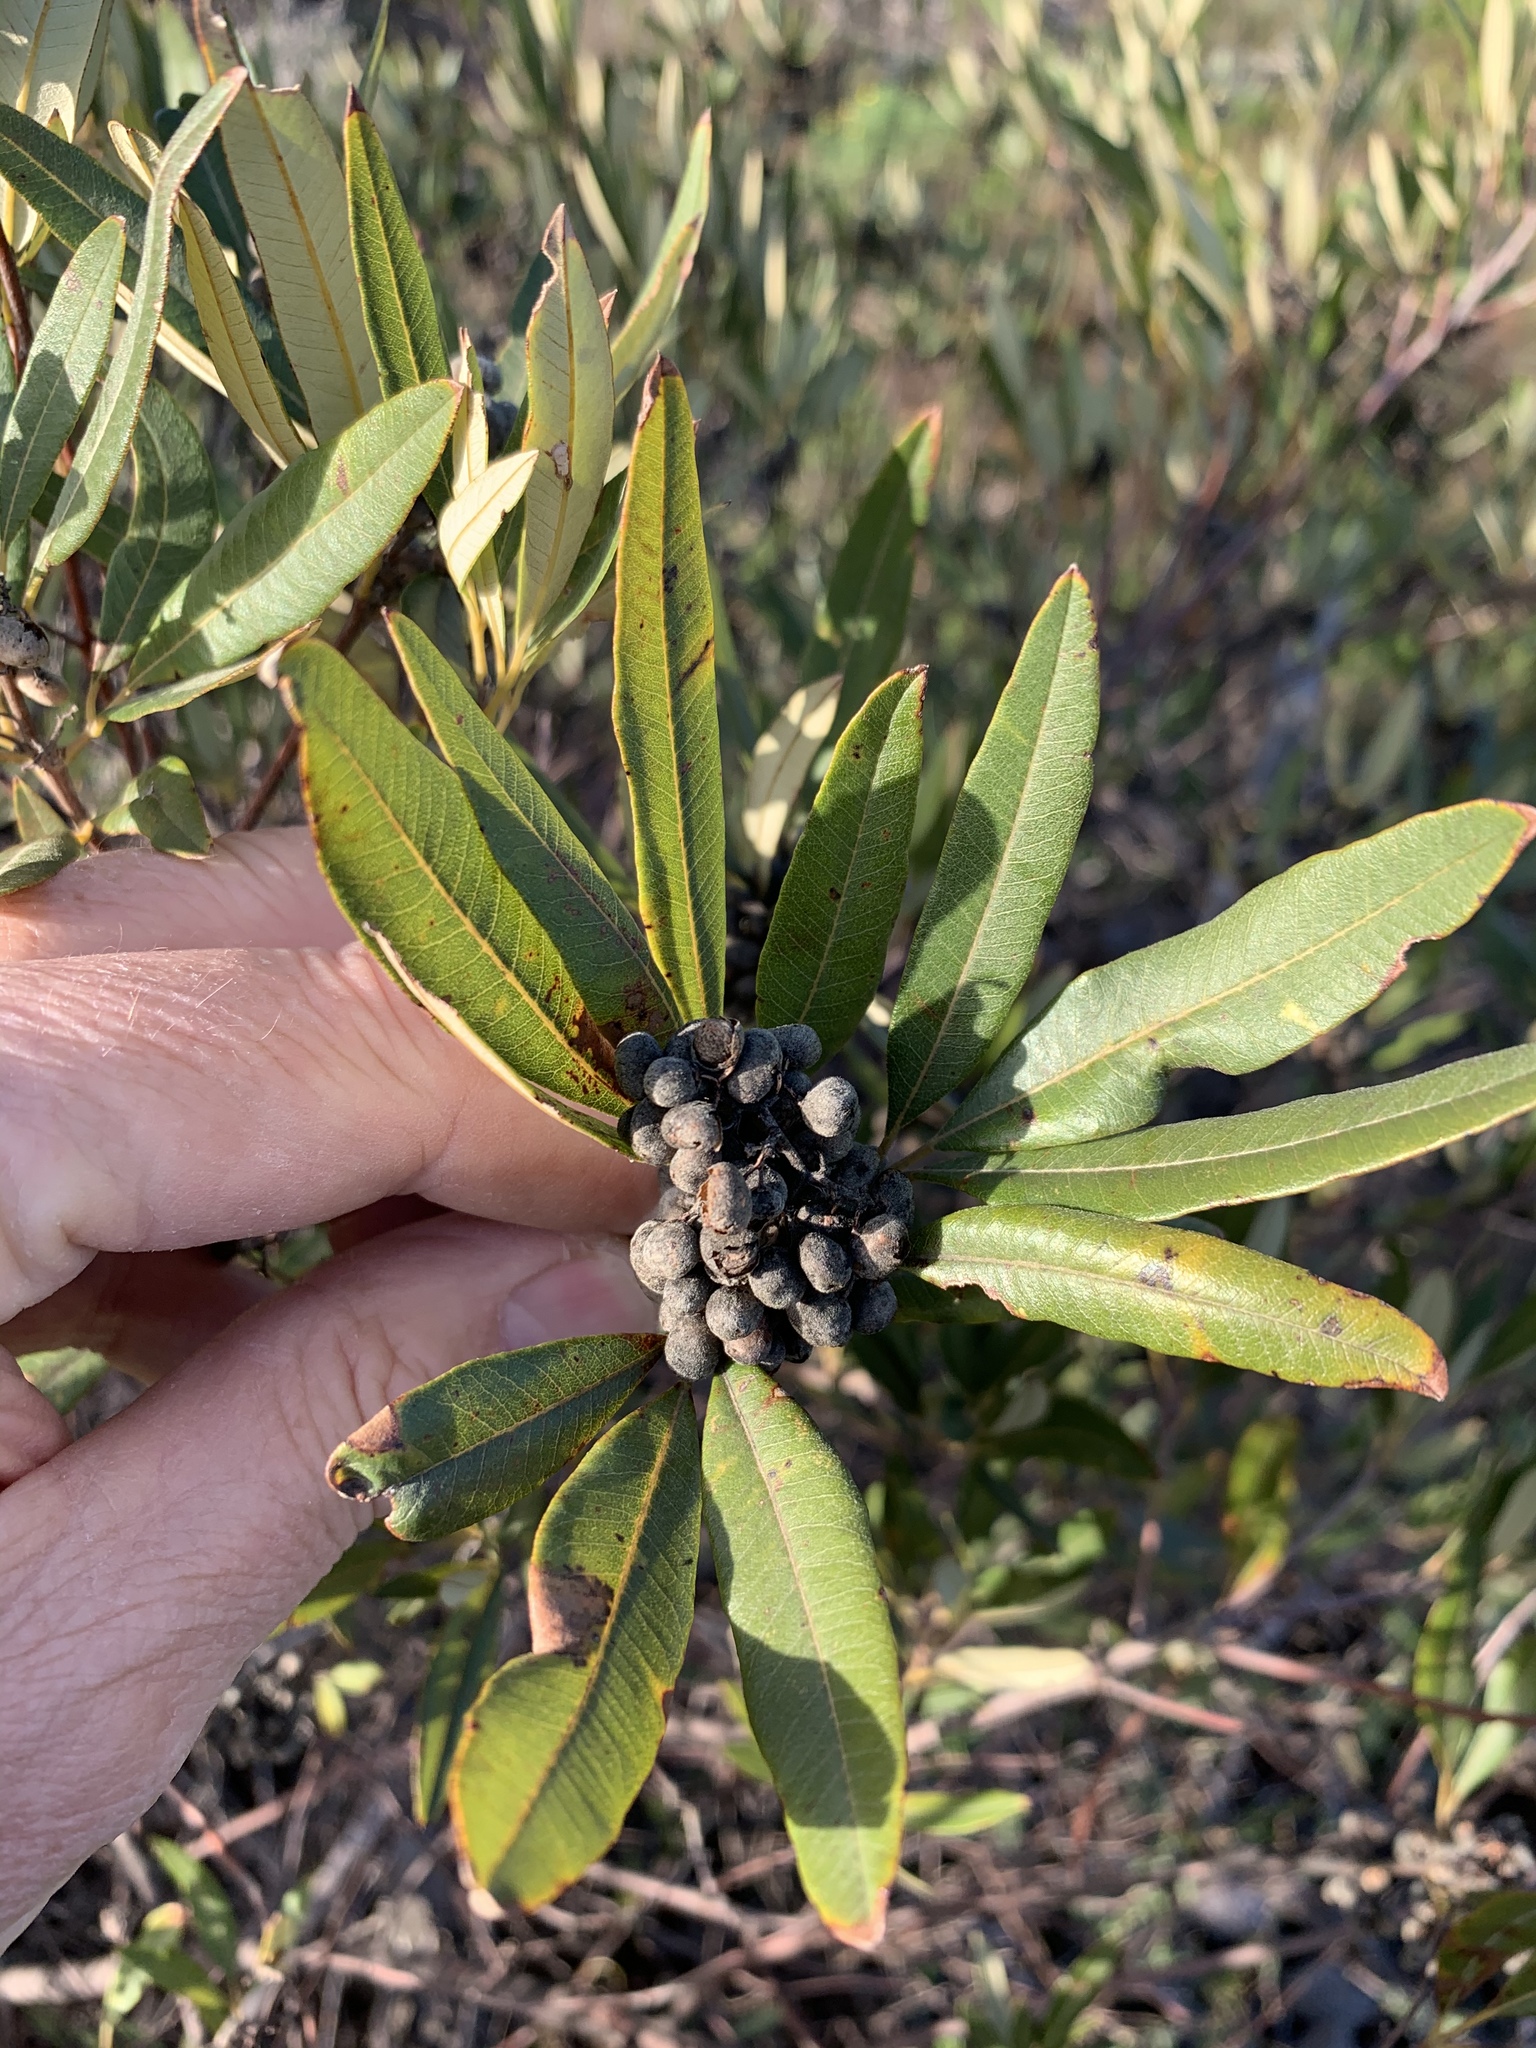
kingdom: Plantae
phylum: Tracheophyta
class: Magnoliopsida
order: Sapindales
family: Anacardiaceae
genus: Searsia
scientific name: Searsia angustifolia
